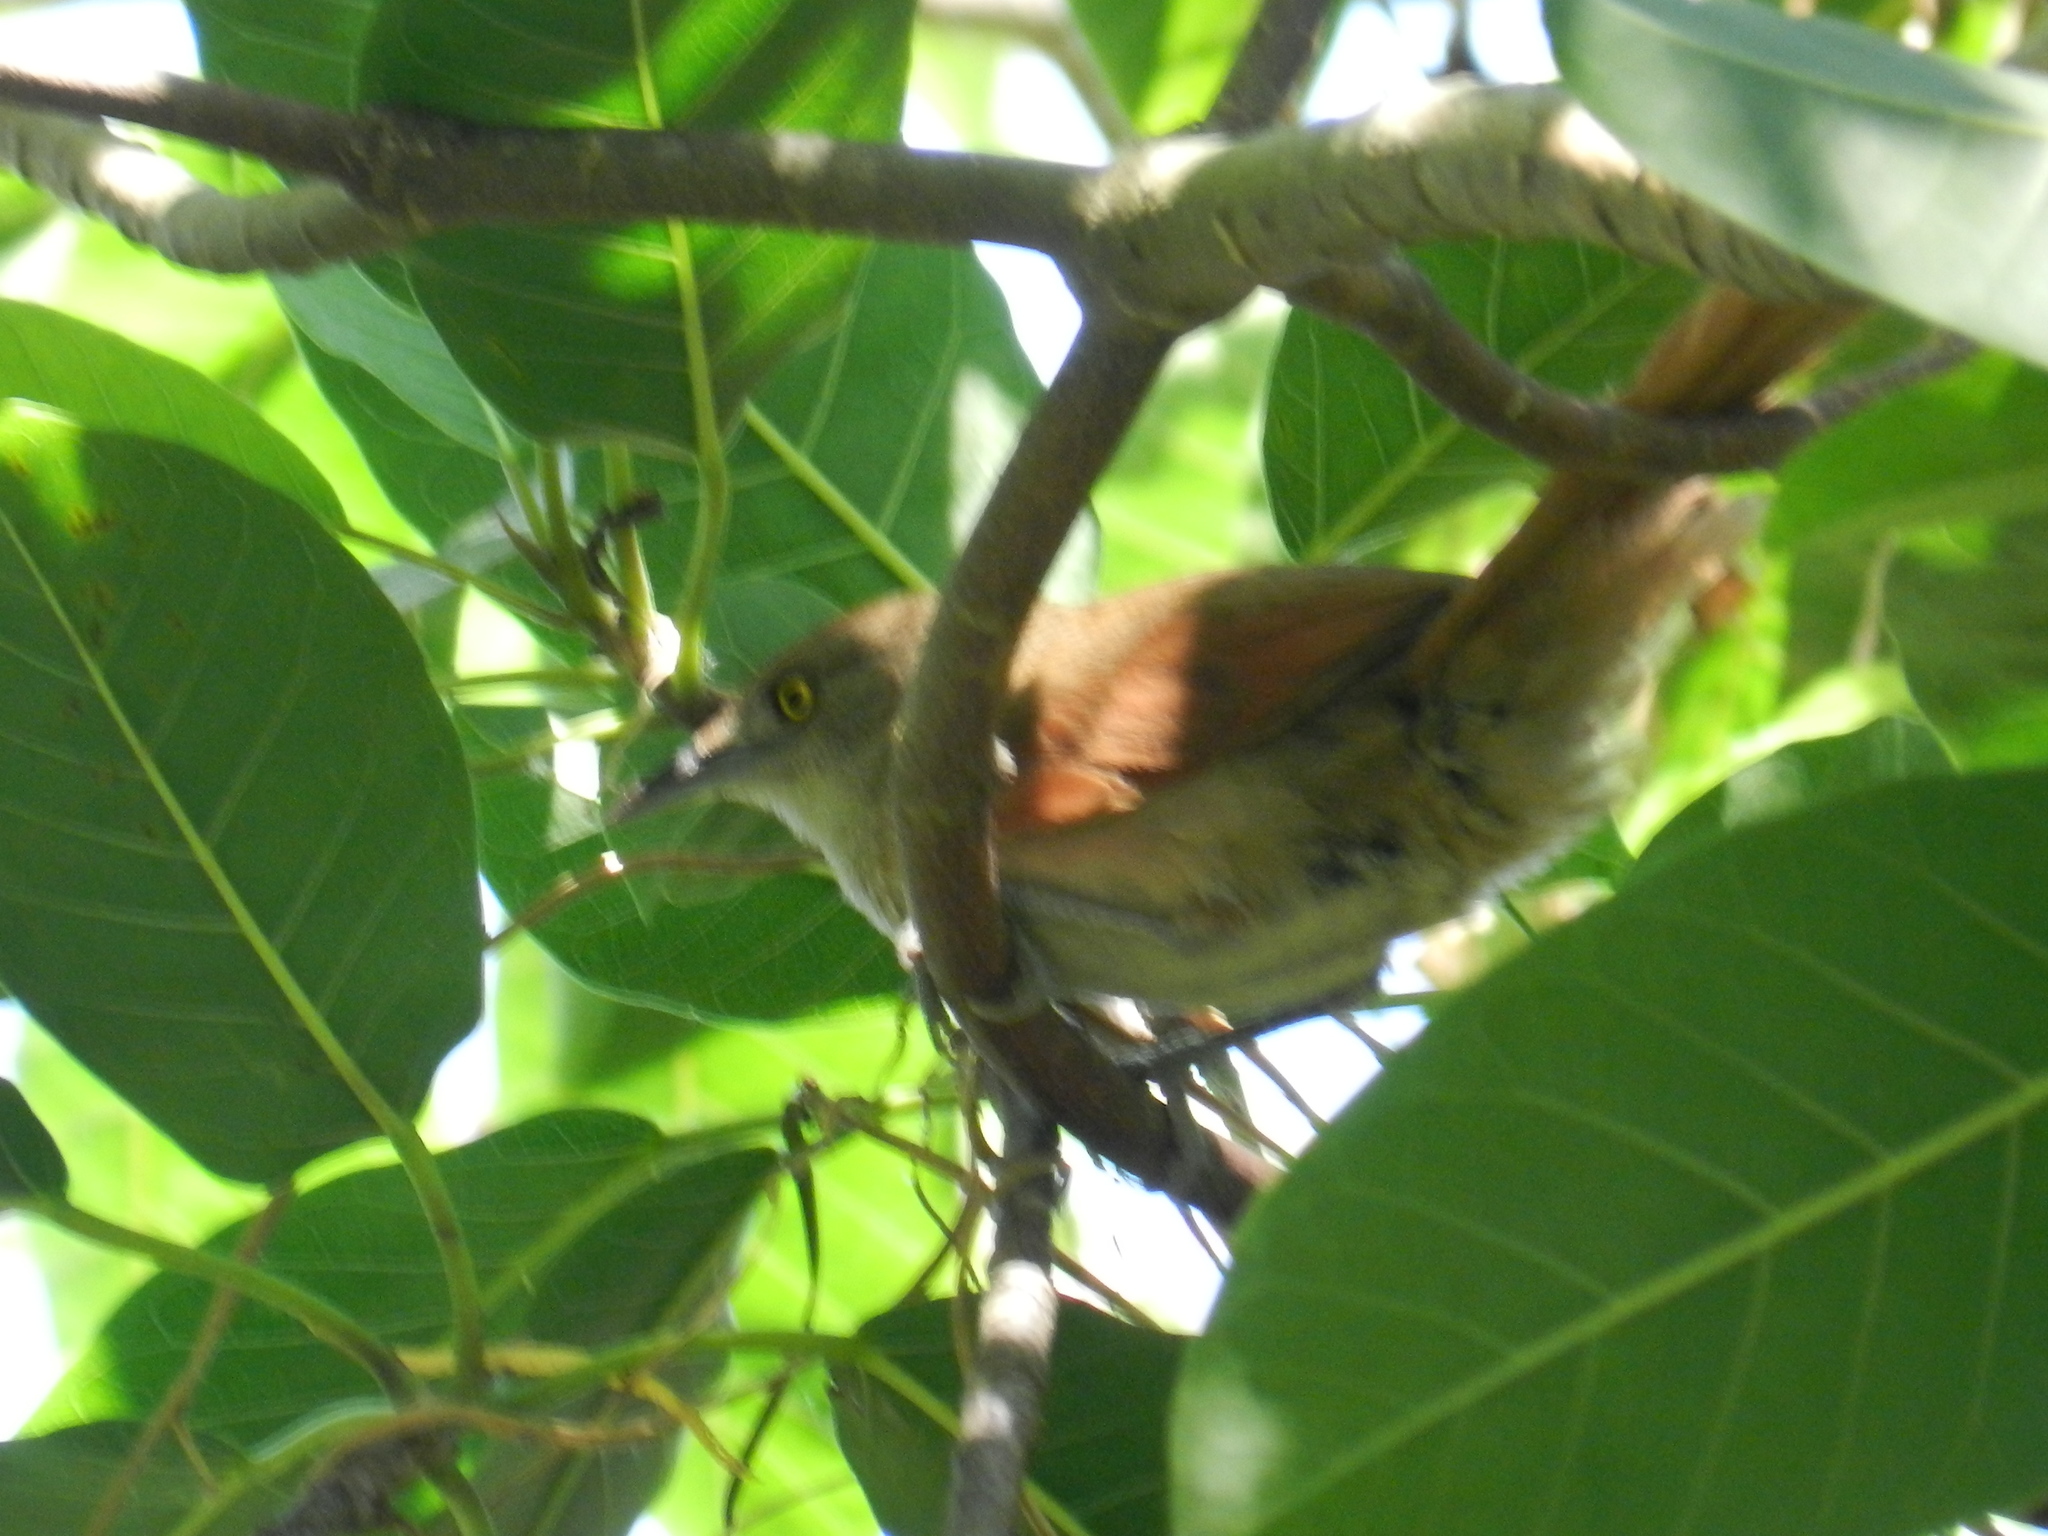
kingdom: Animalia
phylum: Chordata
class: Aves
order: Passeriformes
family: Donacobiidae
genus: Donacobius
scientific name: Donacobius atricapilla
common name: Black-capped donacobius
